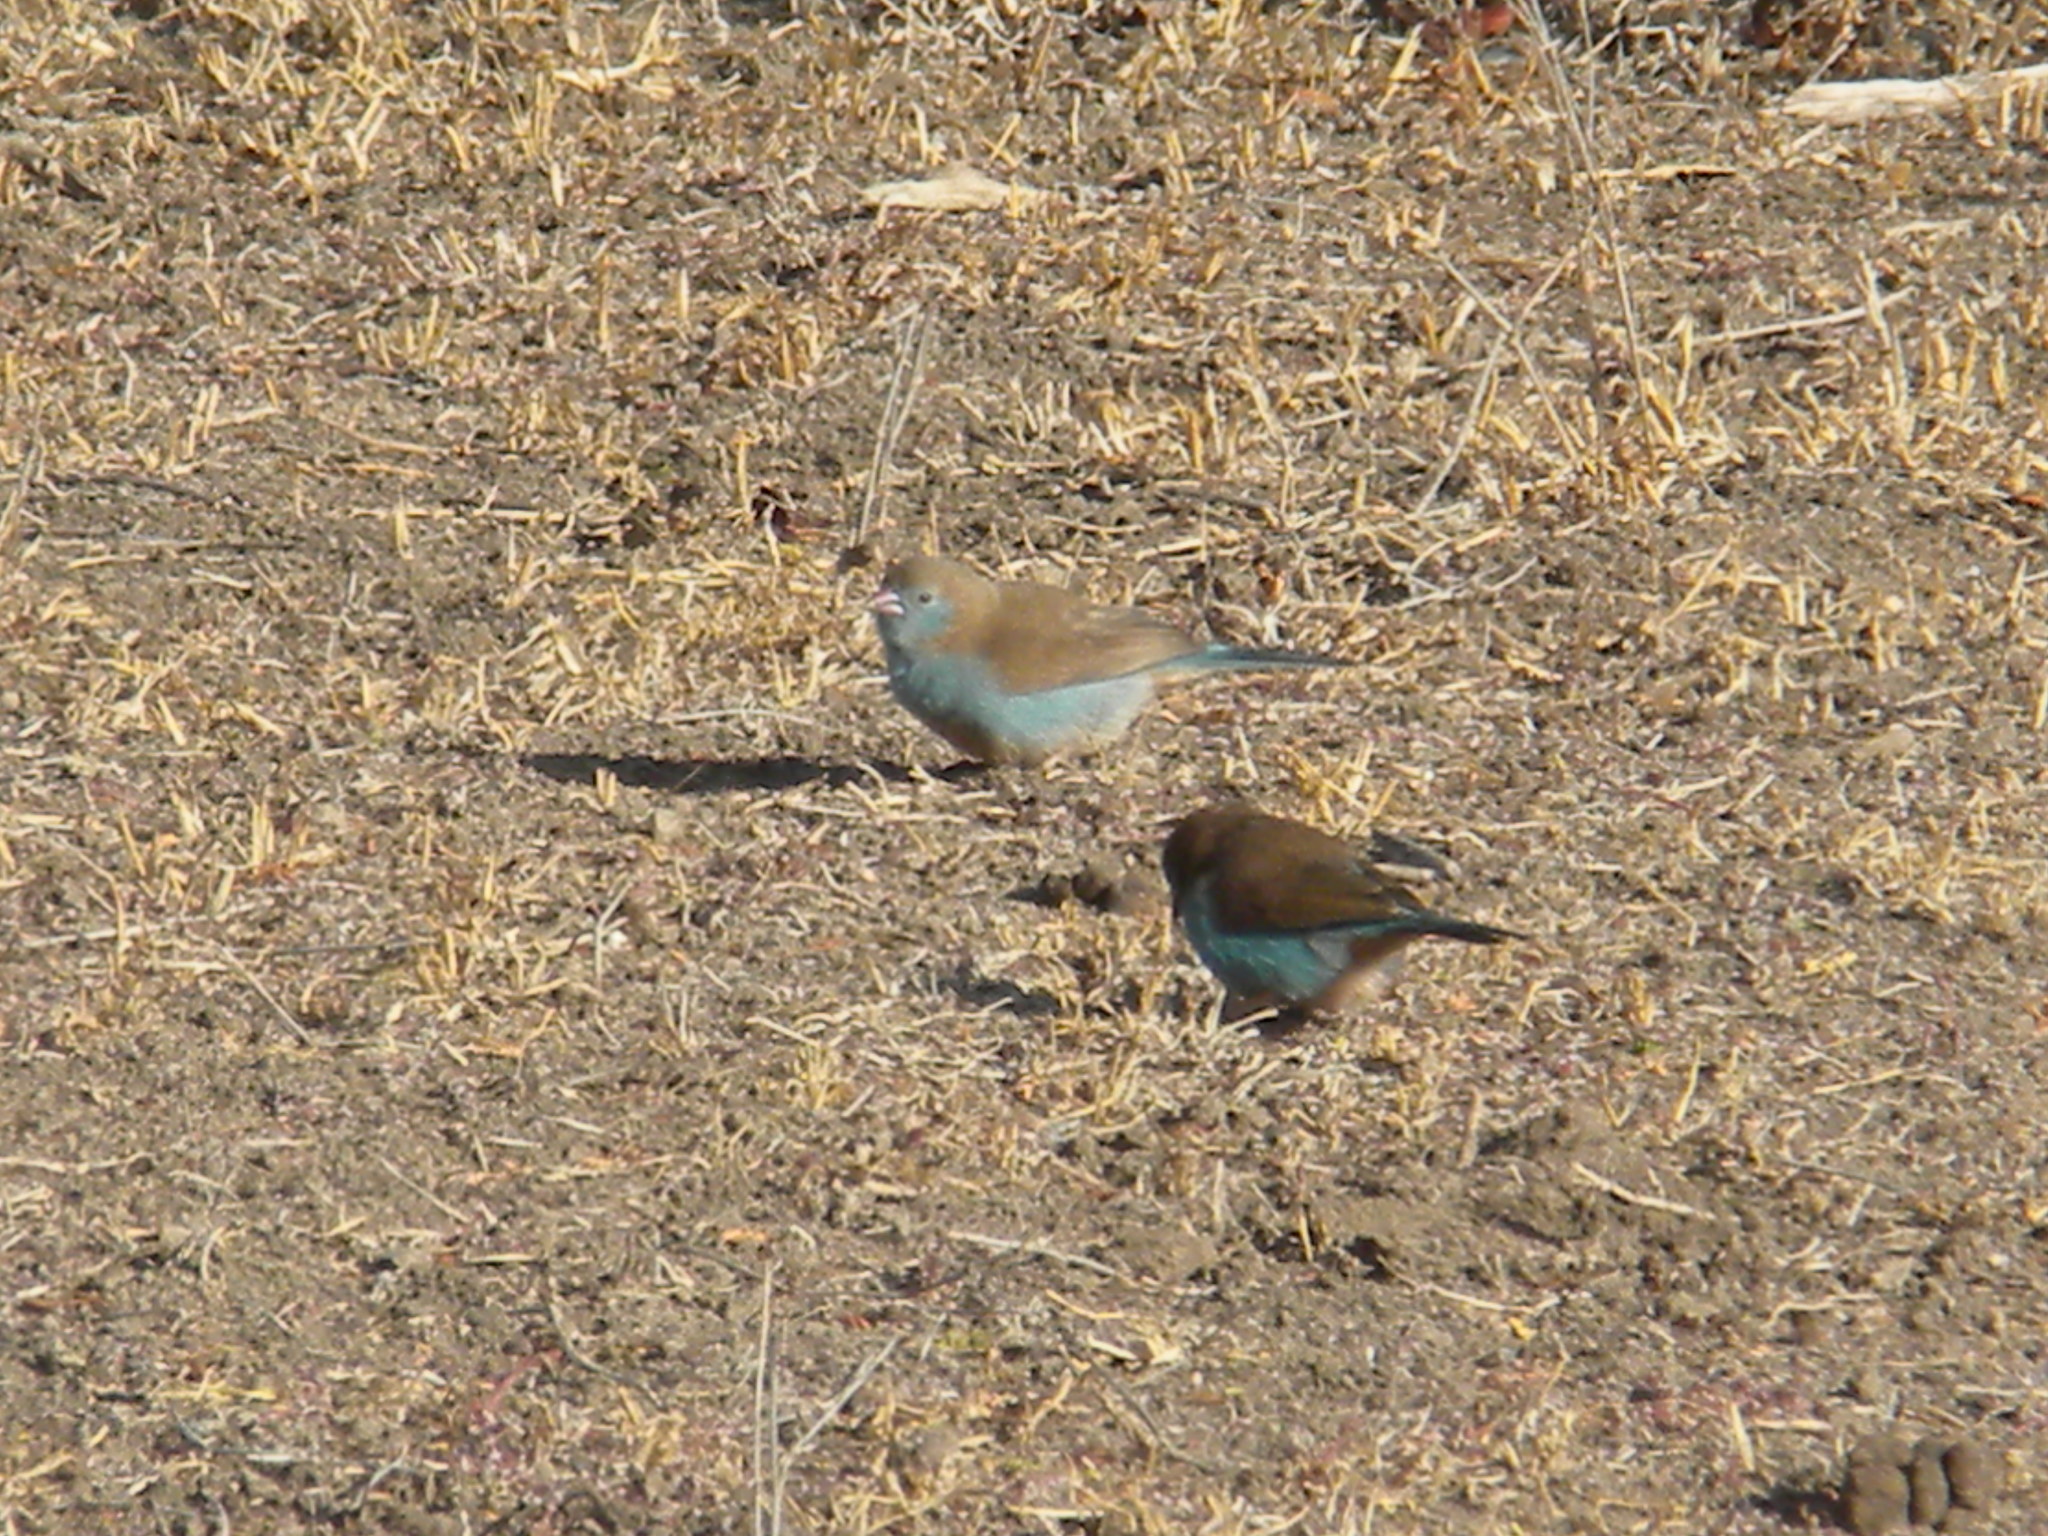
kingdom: Animalia
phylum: Chordata
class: Aves
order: Passeriformes
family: Estrildidae
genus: Uraeginthus
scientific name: Uraeginthus bengalus
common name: Red-cheeked cordon-bleu
